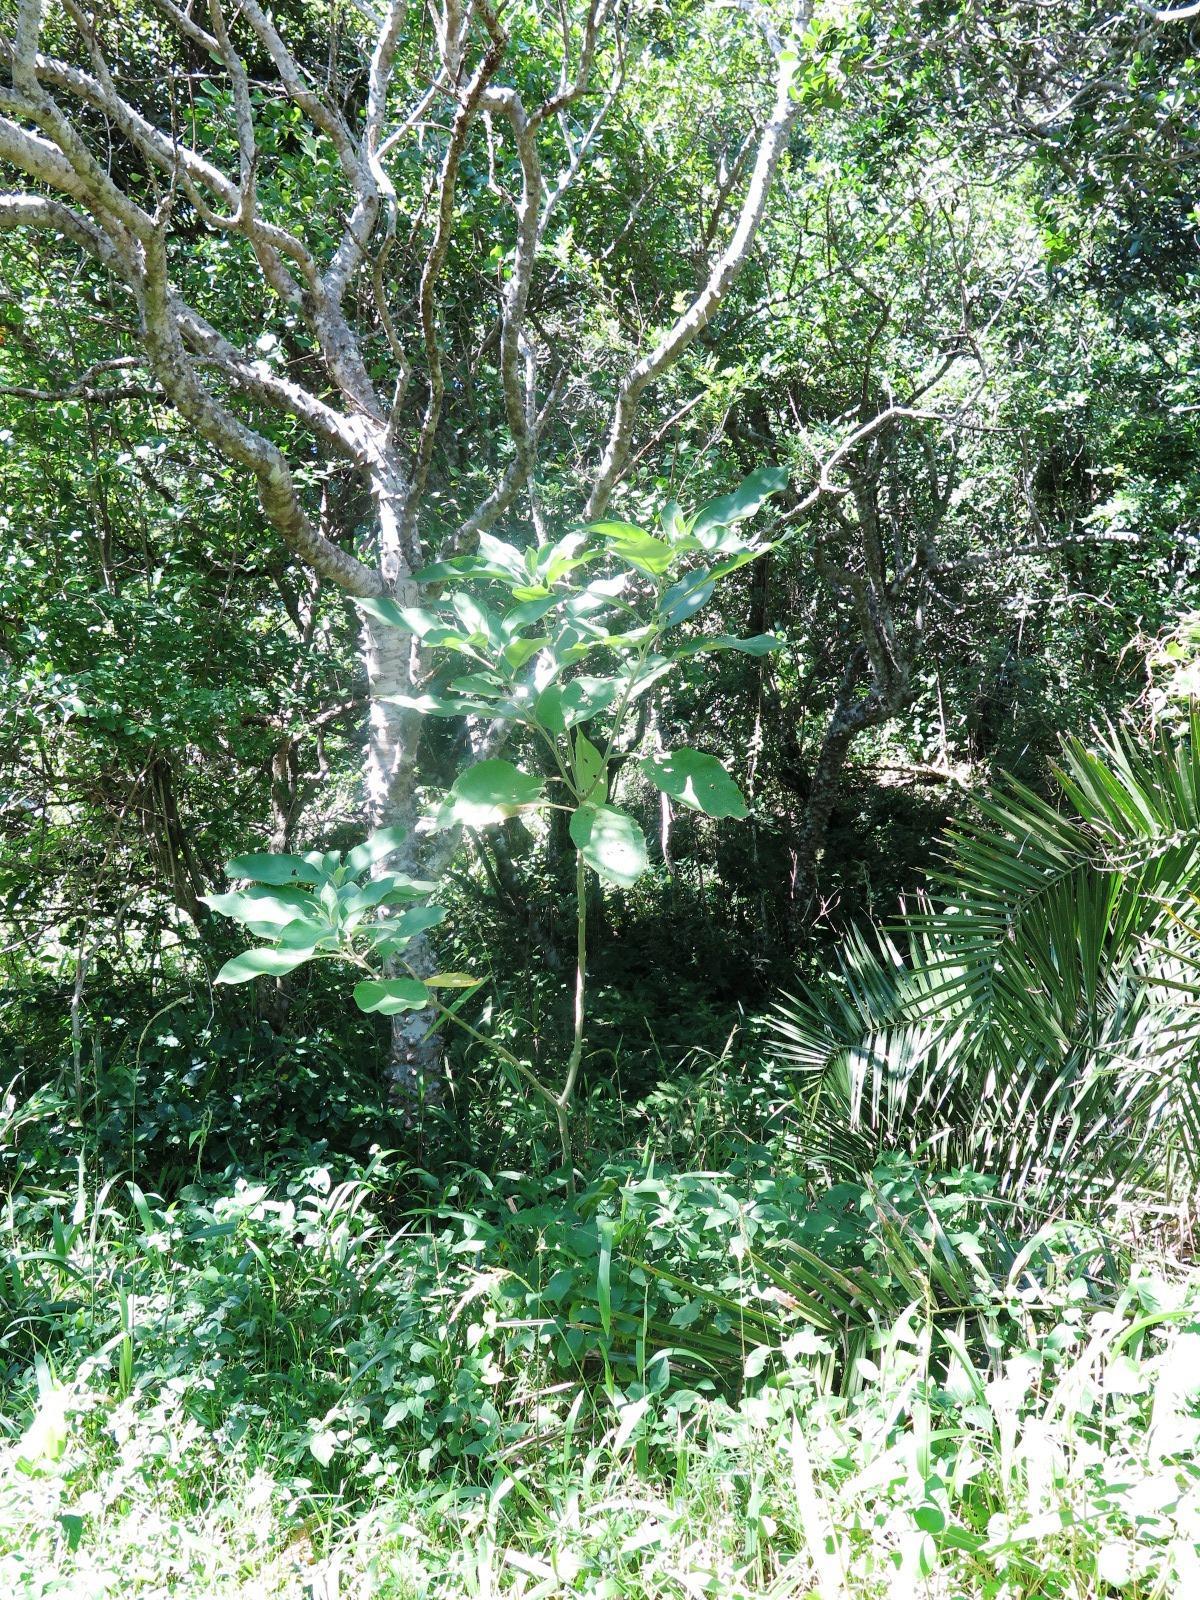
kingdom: Plantae
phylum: Tracheophyta
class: Magnoliopsida
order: Solanales
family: Solanaceae
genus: Solanum
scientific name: Solanum mauritianum
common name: Earleaf nightshade
